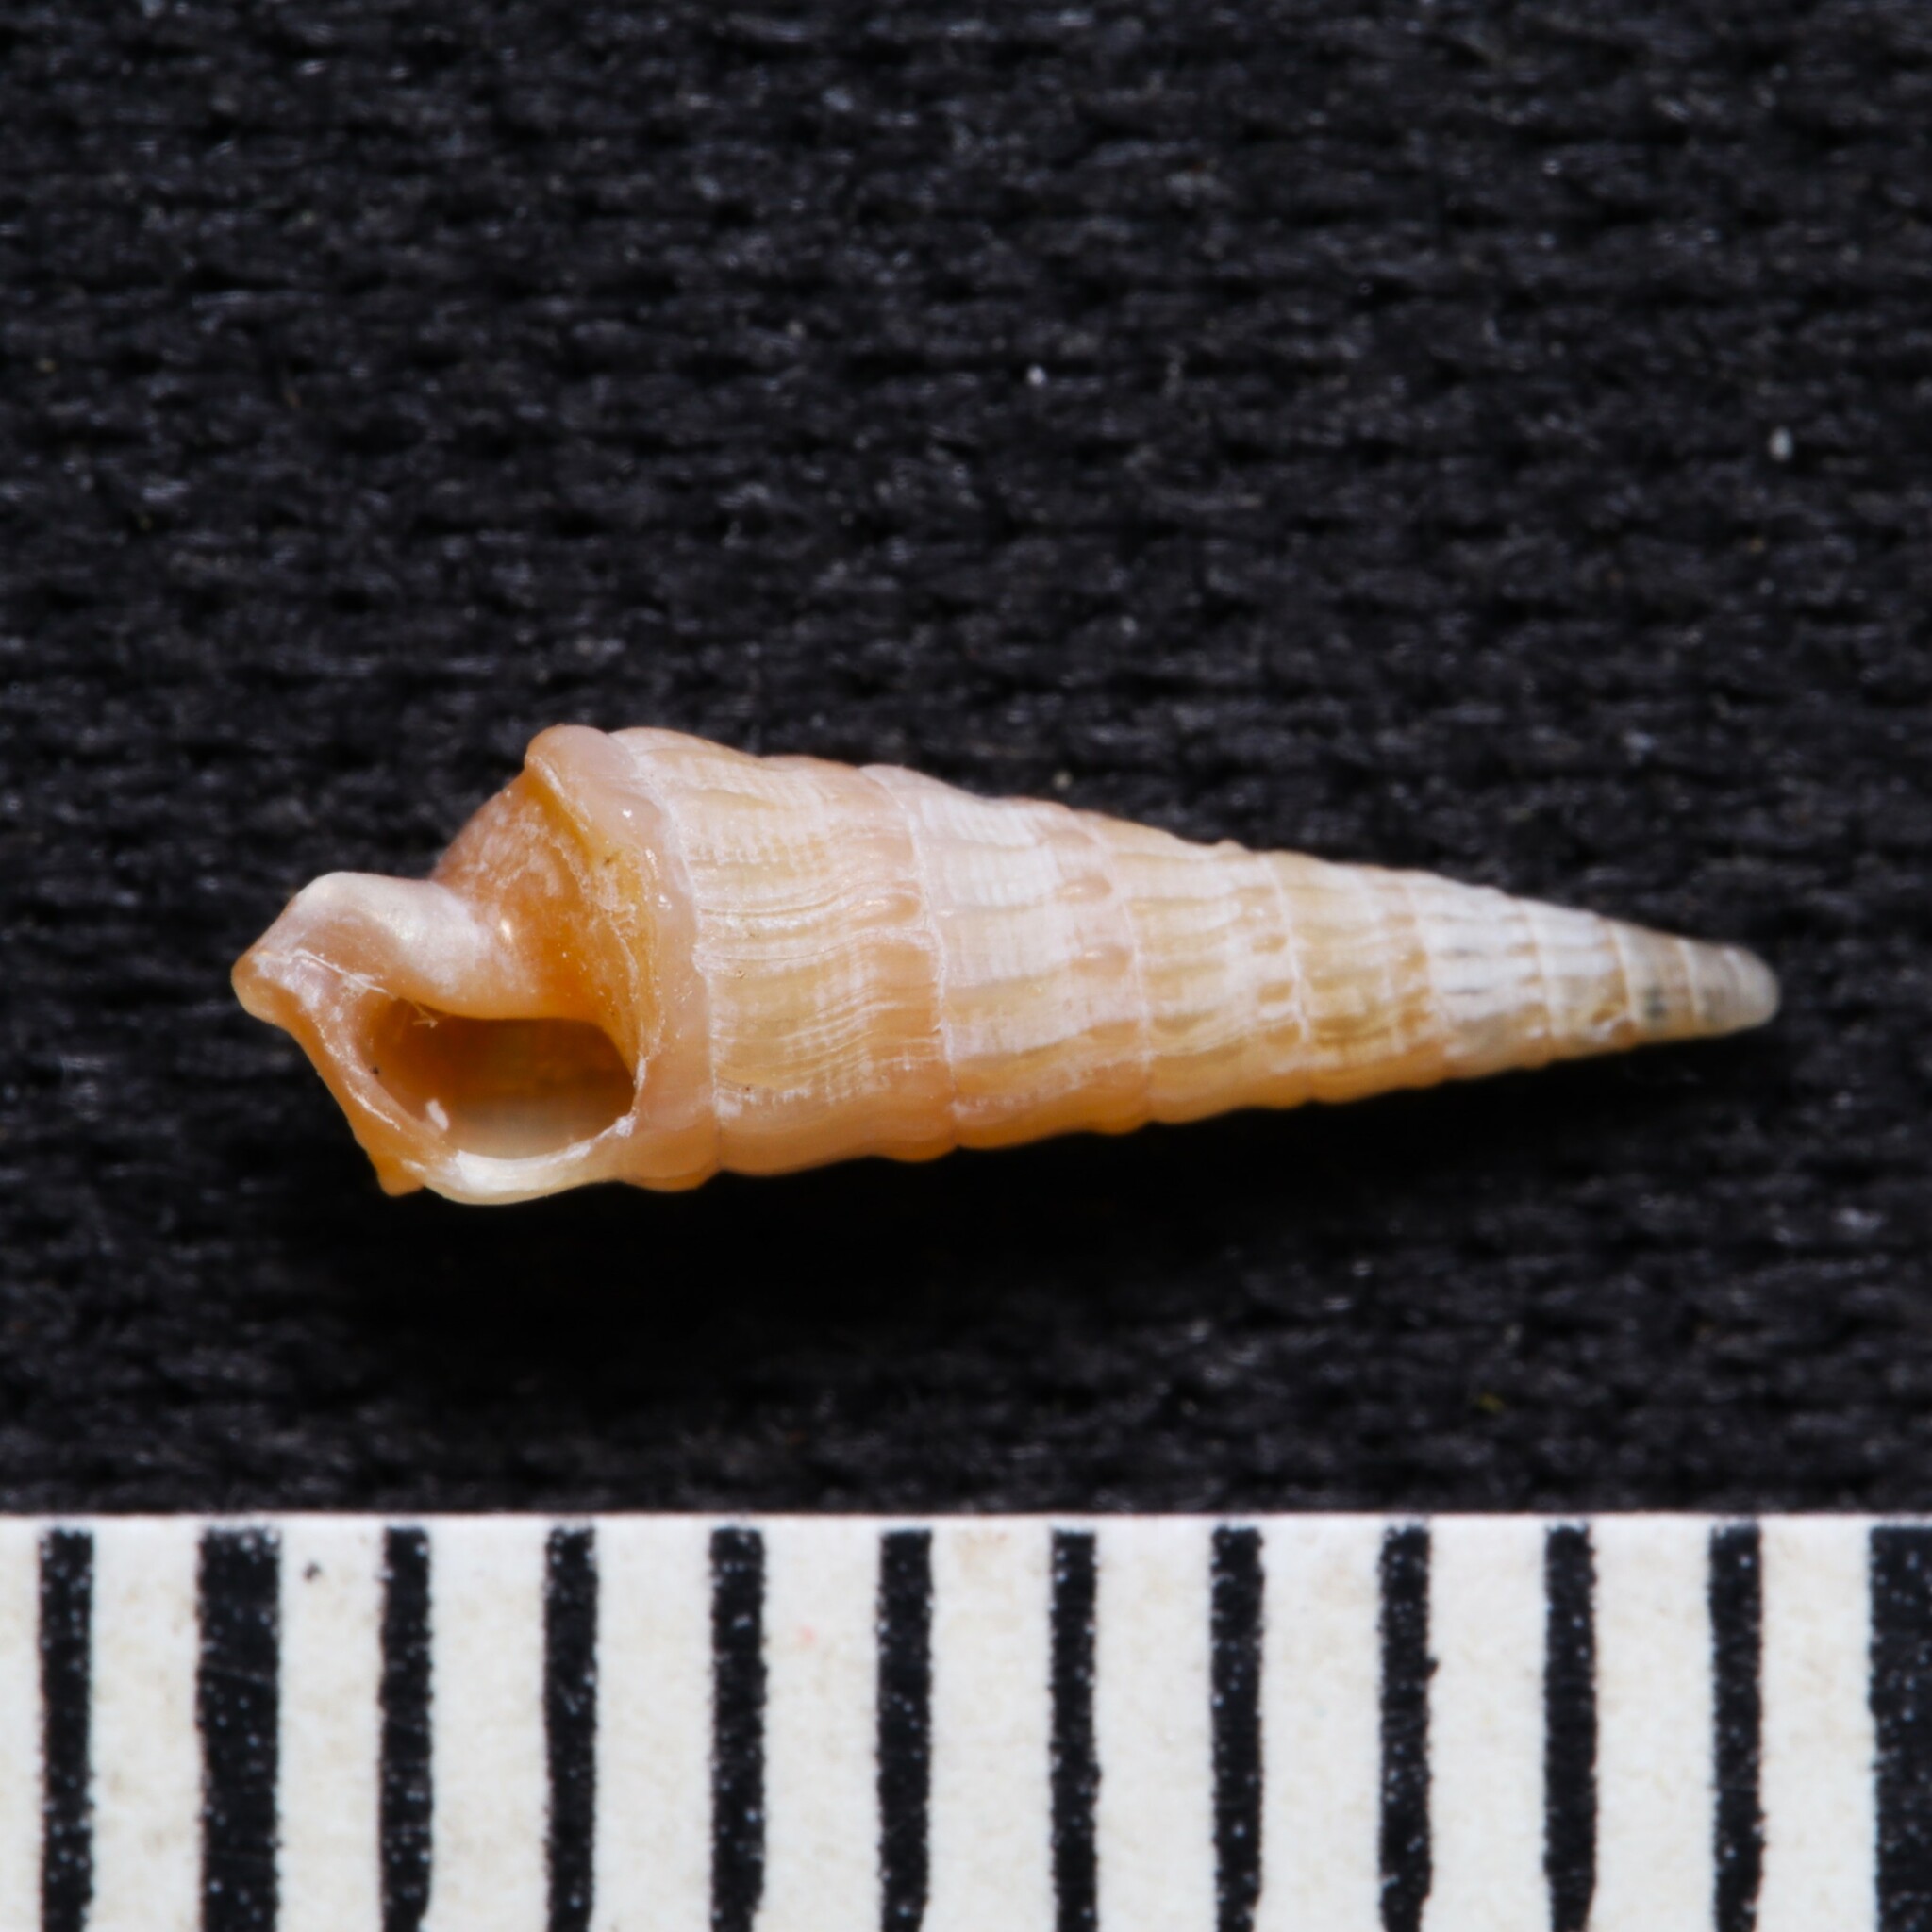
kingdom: Animalia
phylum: Mollusca
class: Gastropoda
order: Neogastropoda
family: Terebridae
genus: Neoterebra
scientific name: Neoterebra dislocata
